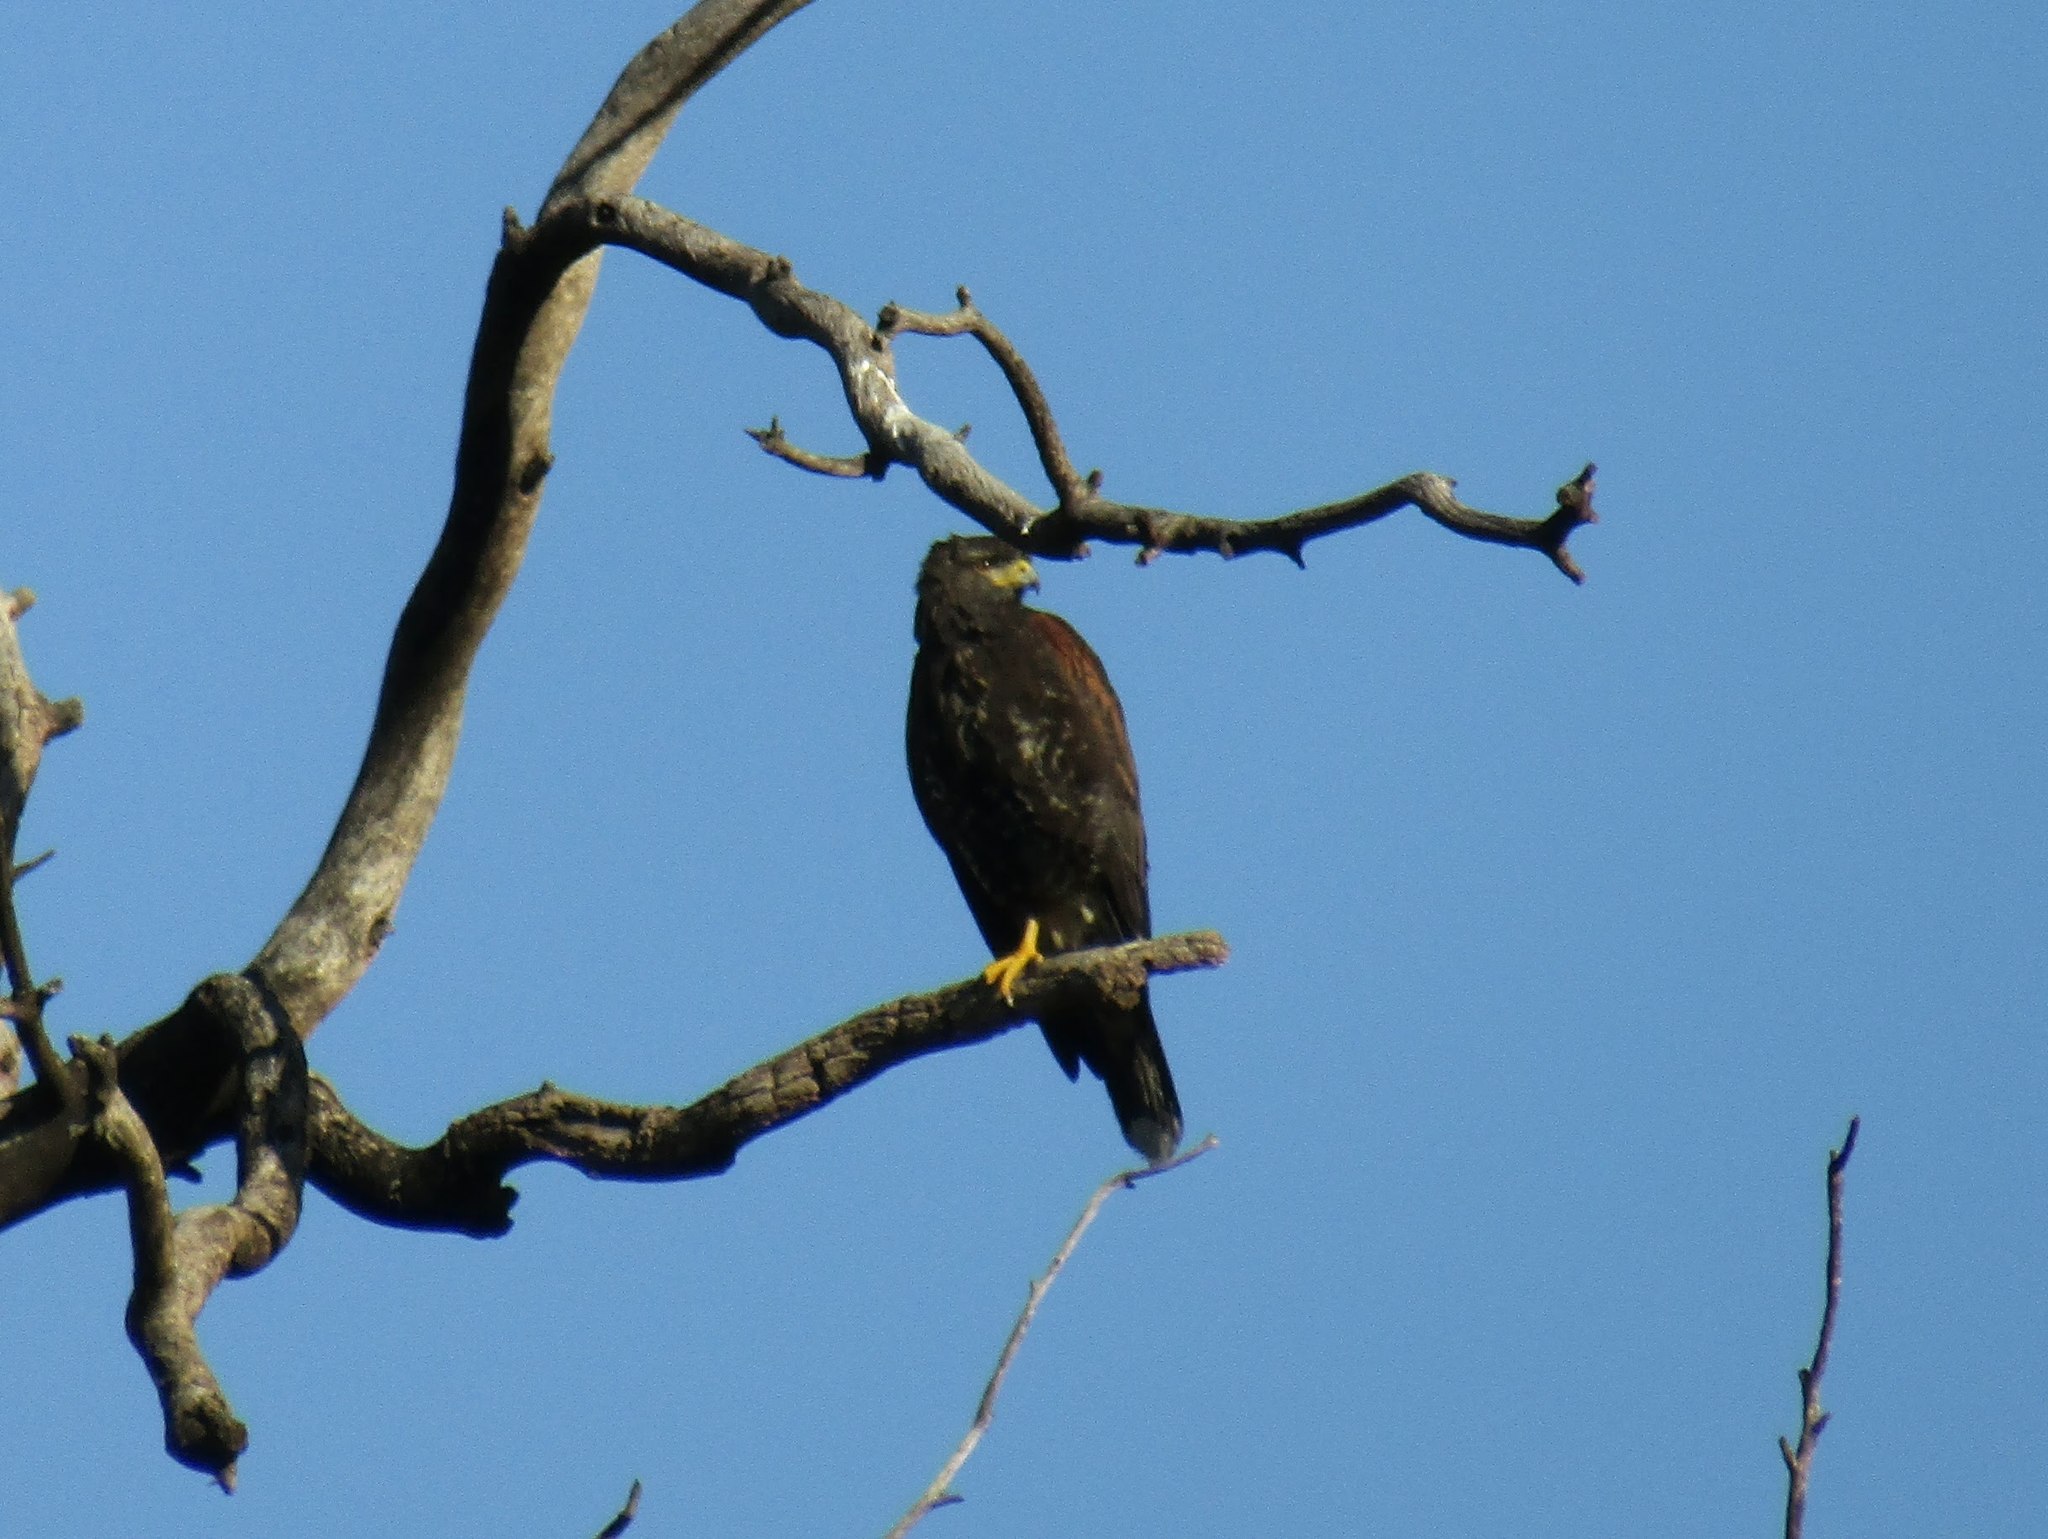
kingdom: Animalia
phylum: Chordata
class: Aves
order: Accipitriformes
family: Accipitridae
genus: Parabuteo
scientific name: Parabuteo unicinctus
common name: Harris's hawk
